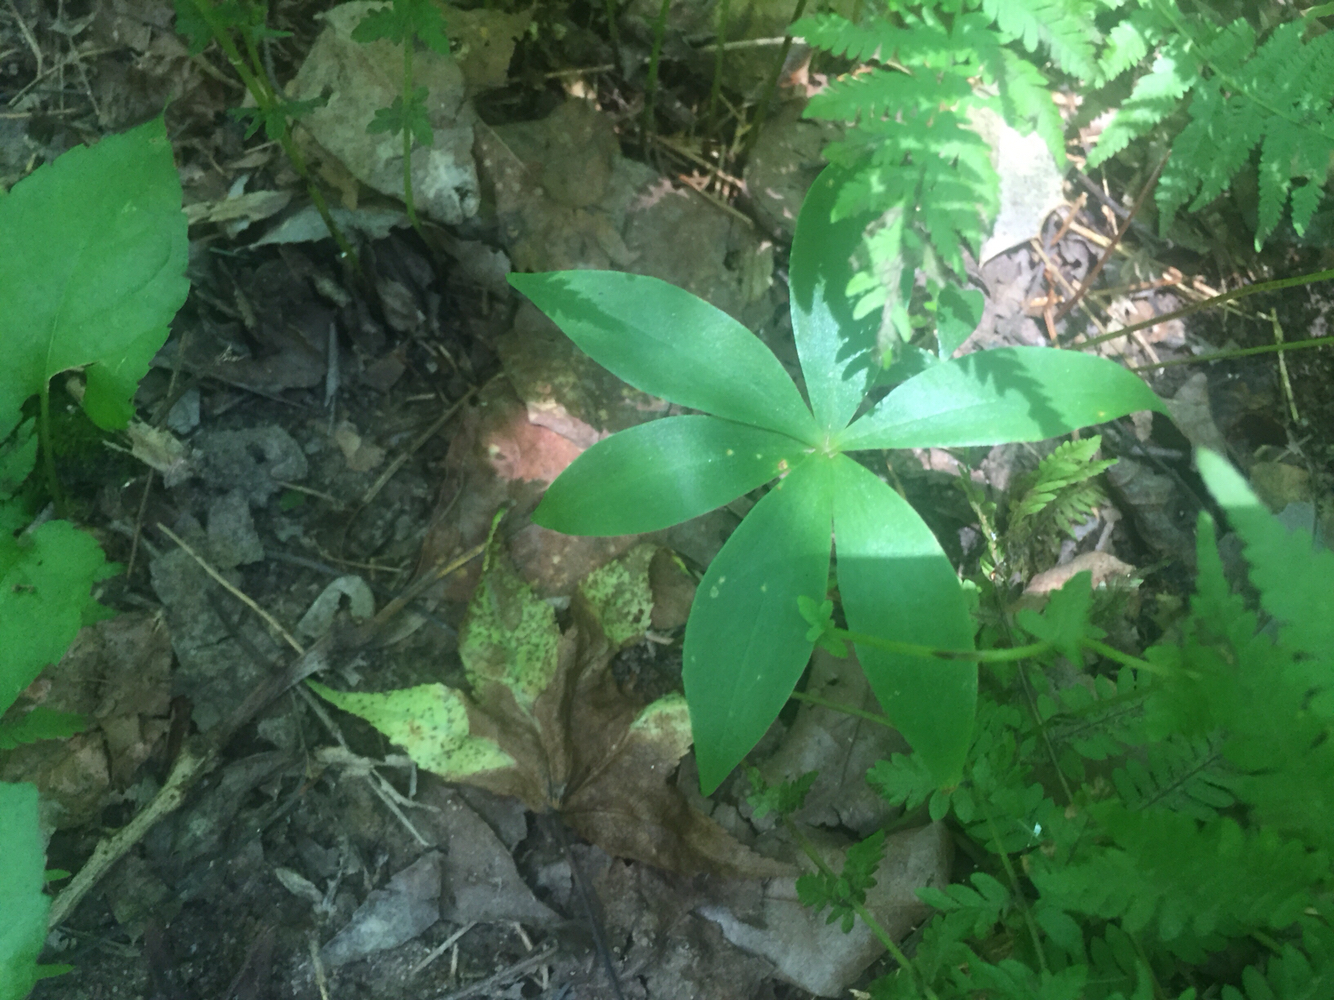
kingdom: Plantae
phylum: Tracheophyta
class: Liliopsida
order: Liliales
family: Liliaceae
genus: Medeola
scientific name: Medeola virginiana
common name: Indian cucumber-root
